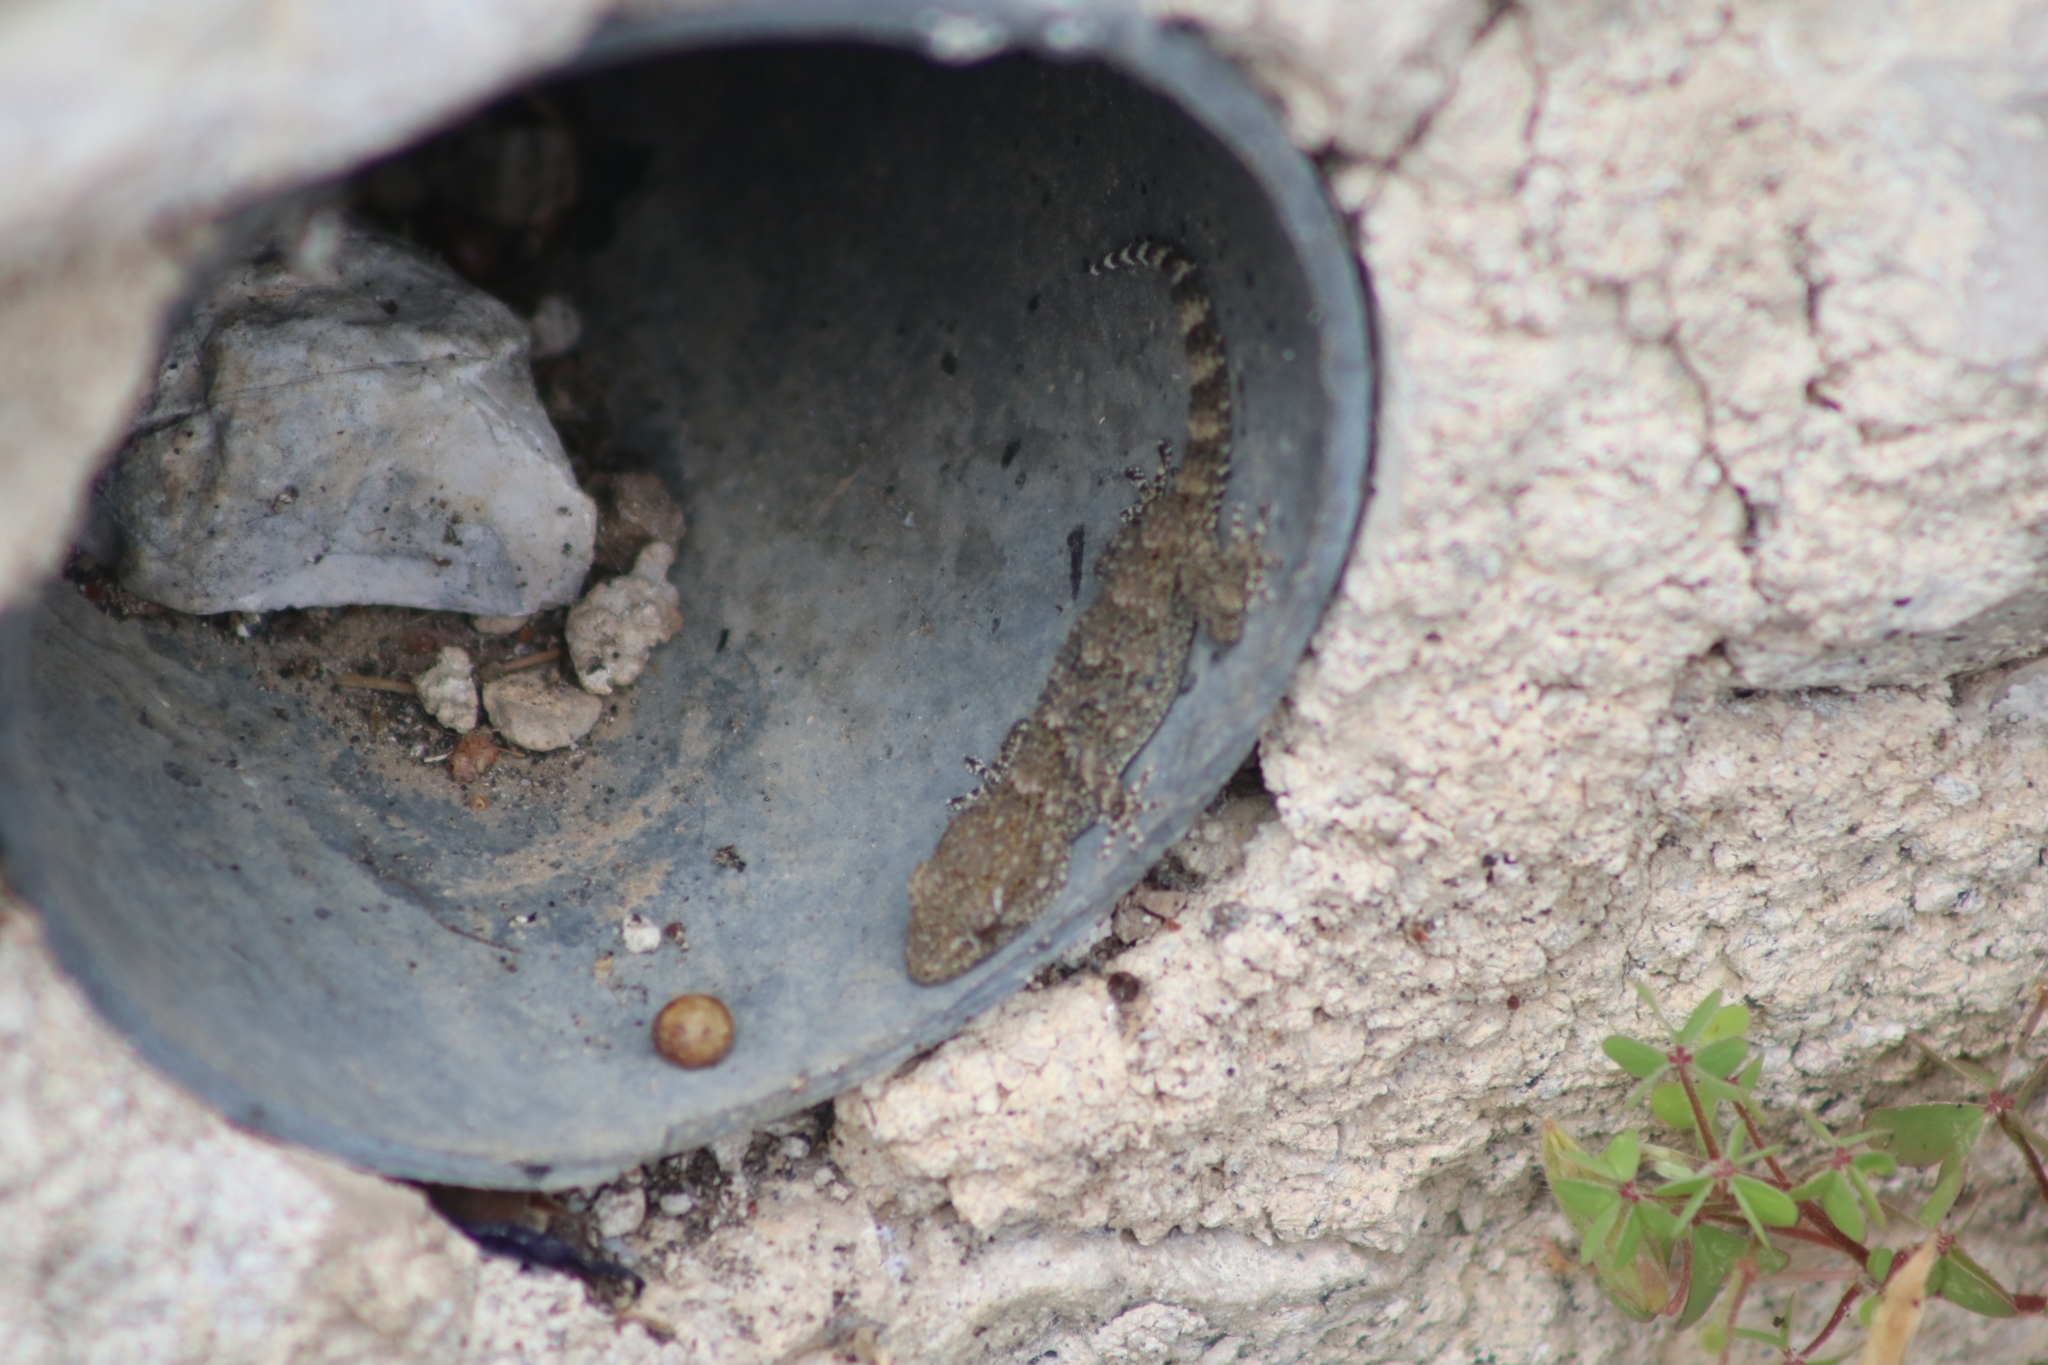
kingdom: Animalia
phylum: Chordata
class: Squamata
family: Phyllodactylidae
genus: Tarentola
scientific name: Tarentola mauritanica
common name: Moorish gecko
